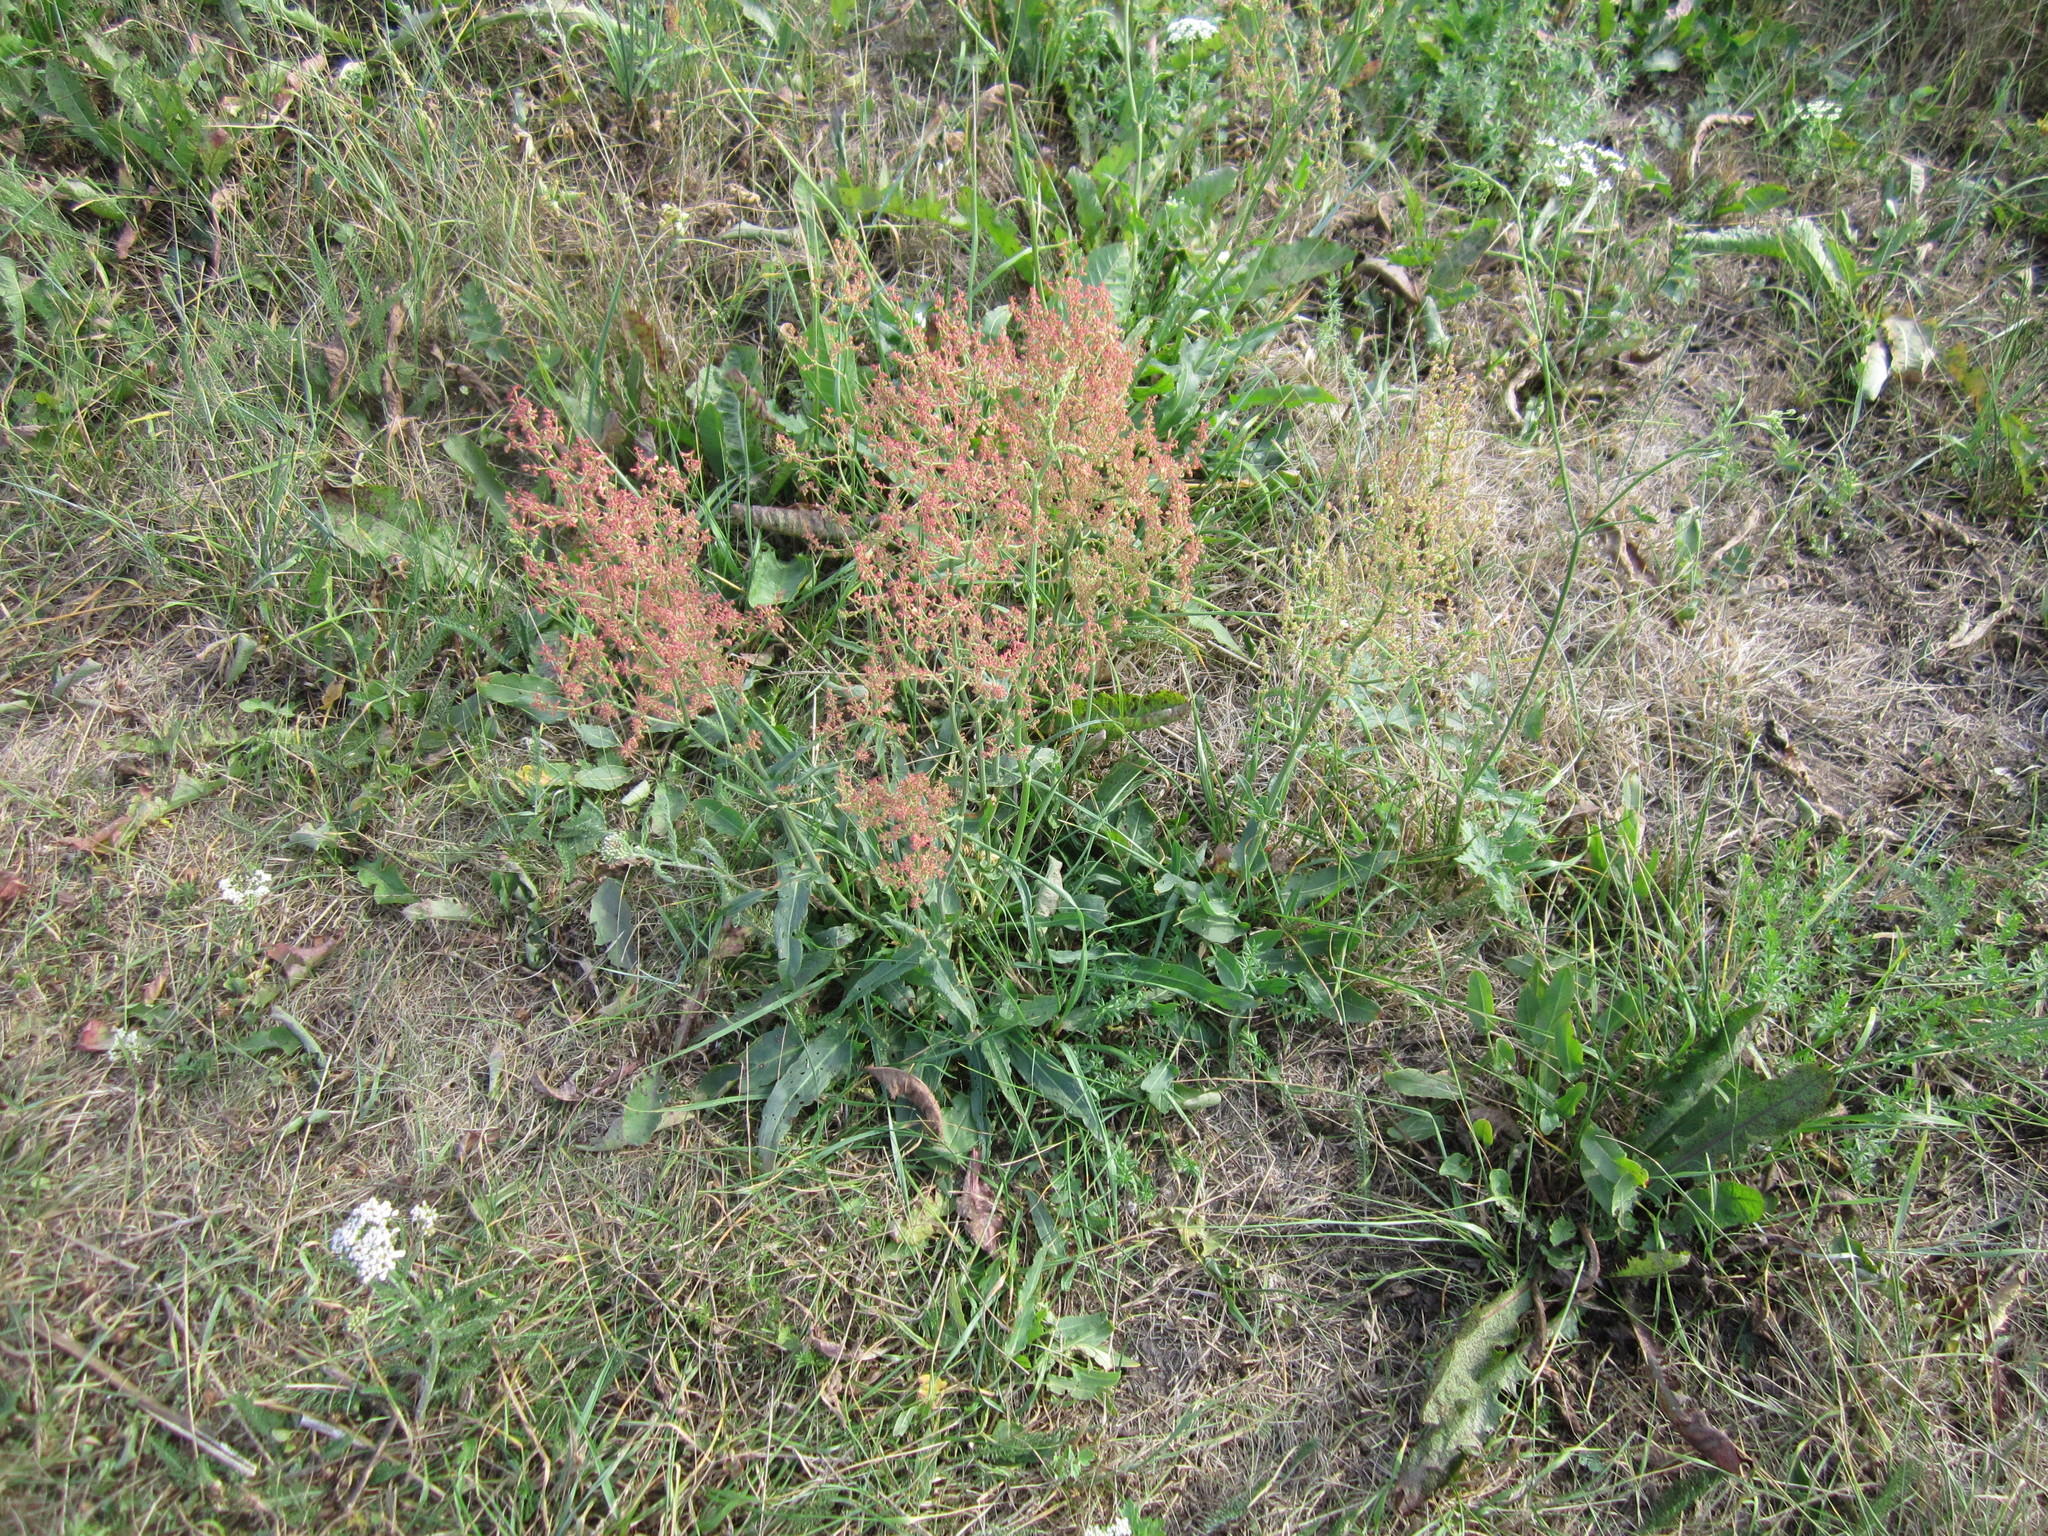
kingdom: Plantae
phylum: Tracheophyta
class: Magnoliopsida
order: Caryophyllales
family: Polygonaceae
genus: Rumex
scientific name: Rumex thyrsiflorus
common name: Garden sorrel
